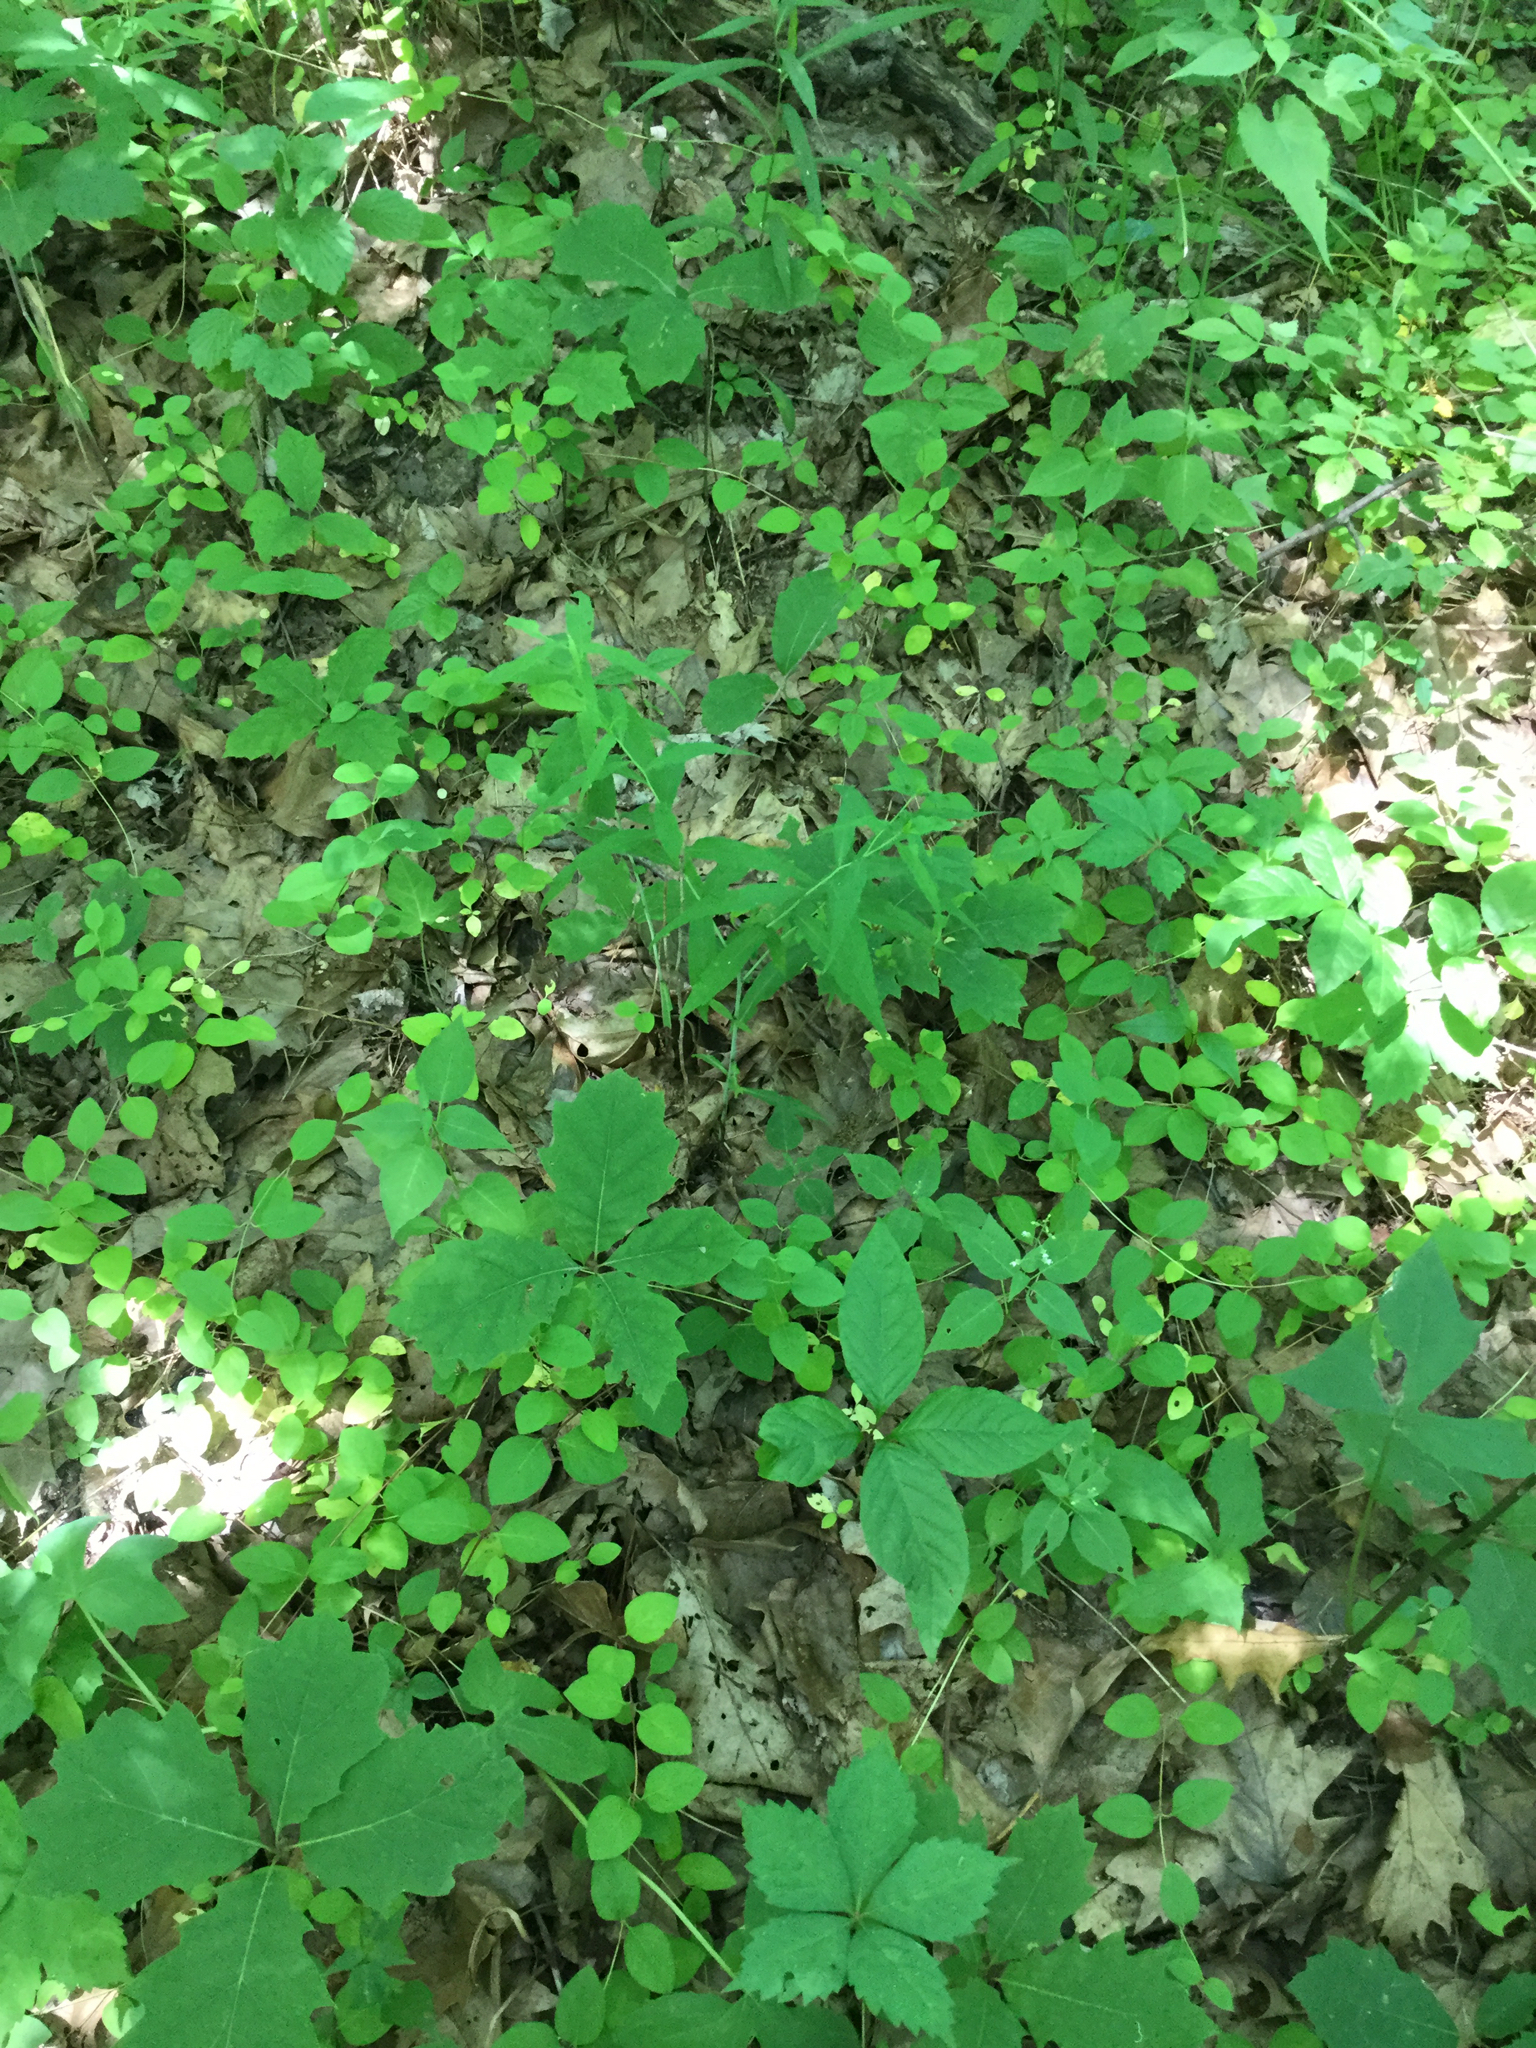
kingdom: Plantae
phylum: Tracheophyta
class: Magnoliopsida
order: Dipsacales
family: Caprifoliaceae
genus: Lonicera
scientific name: Lonicera japonica
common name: Japanese honeysuckle
